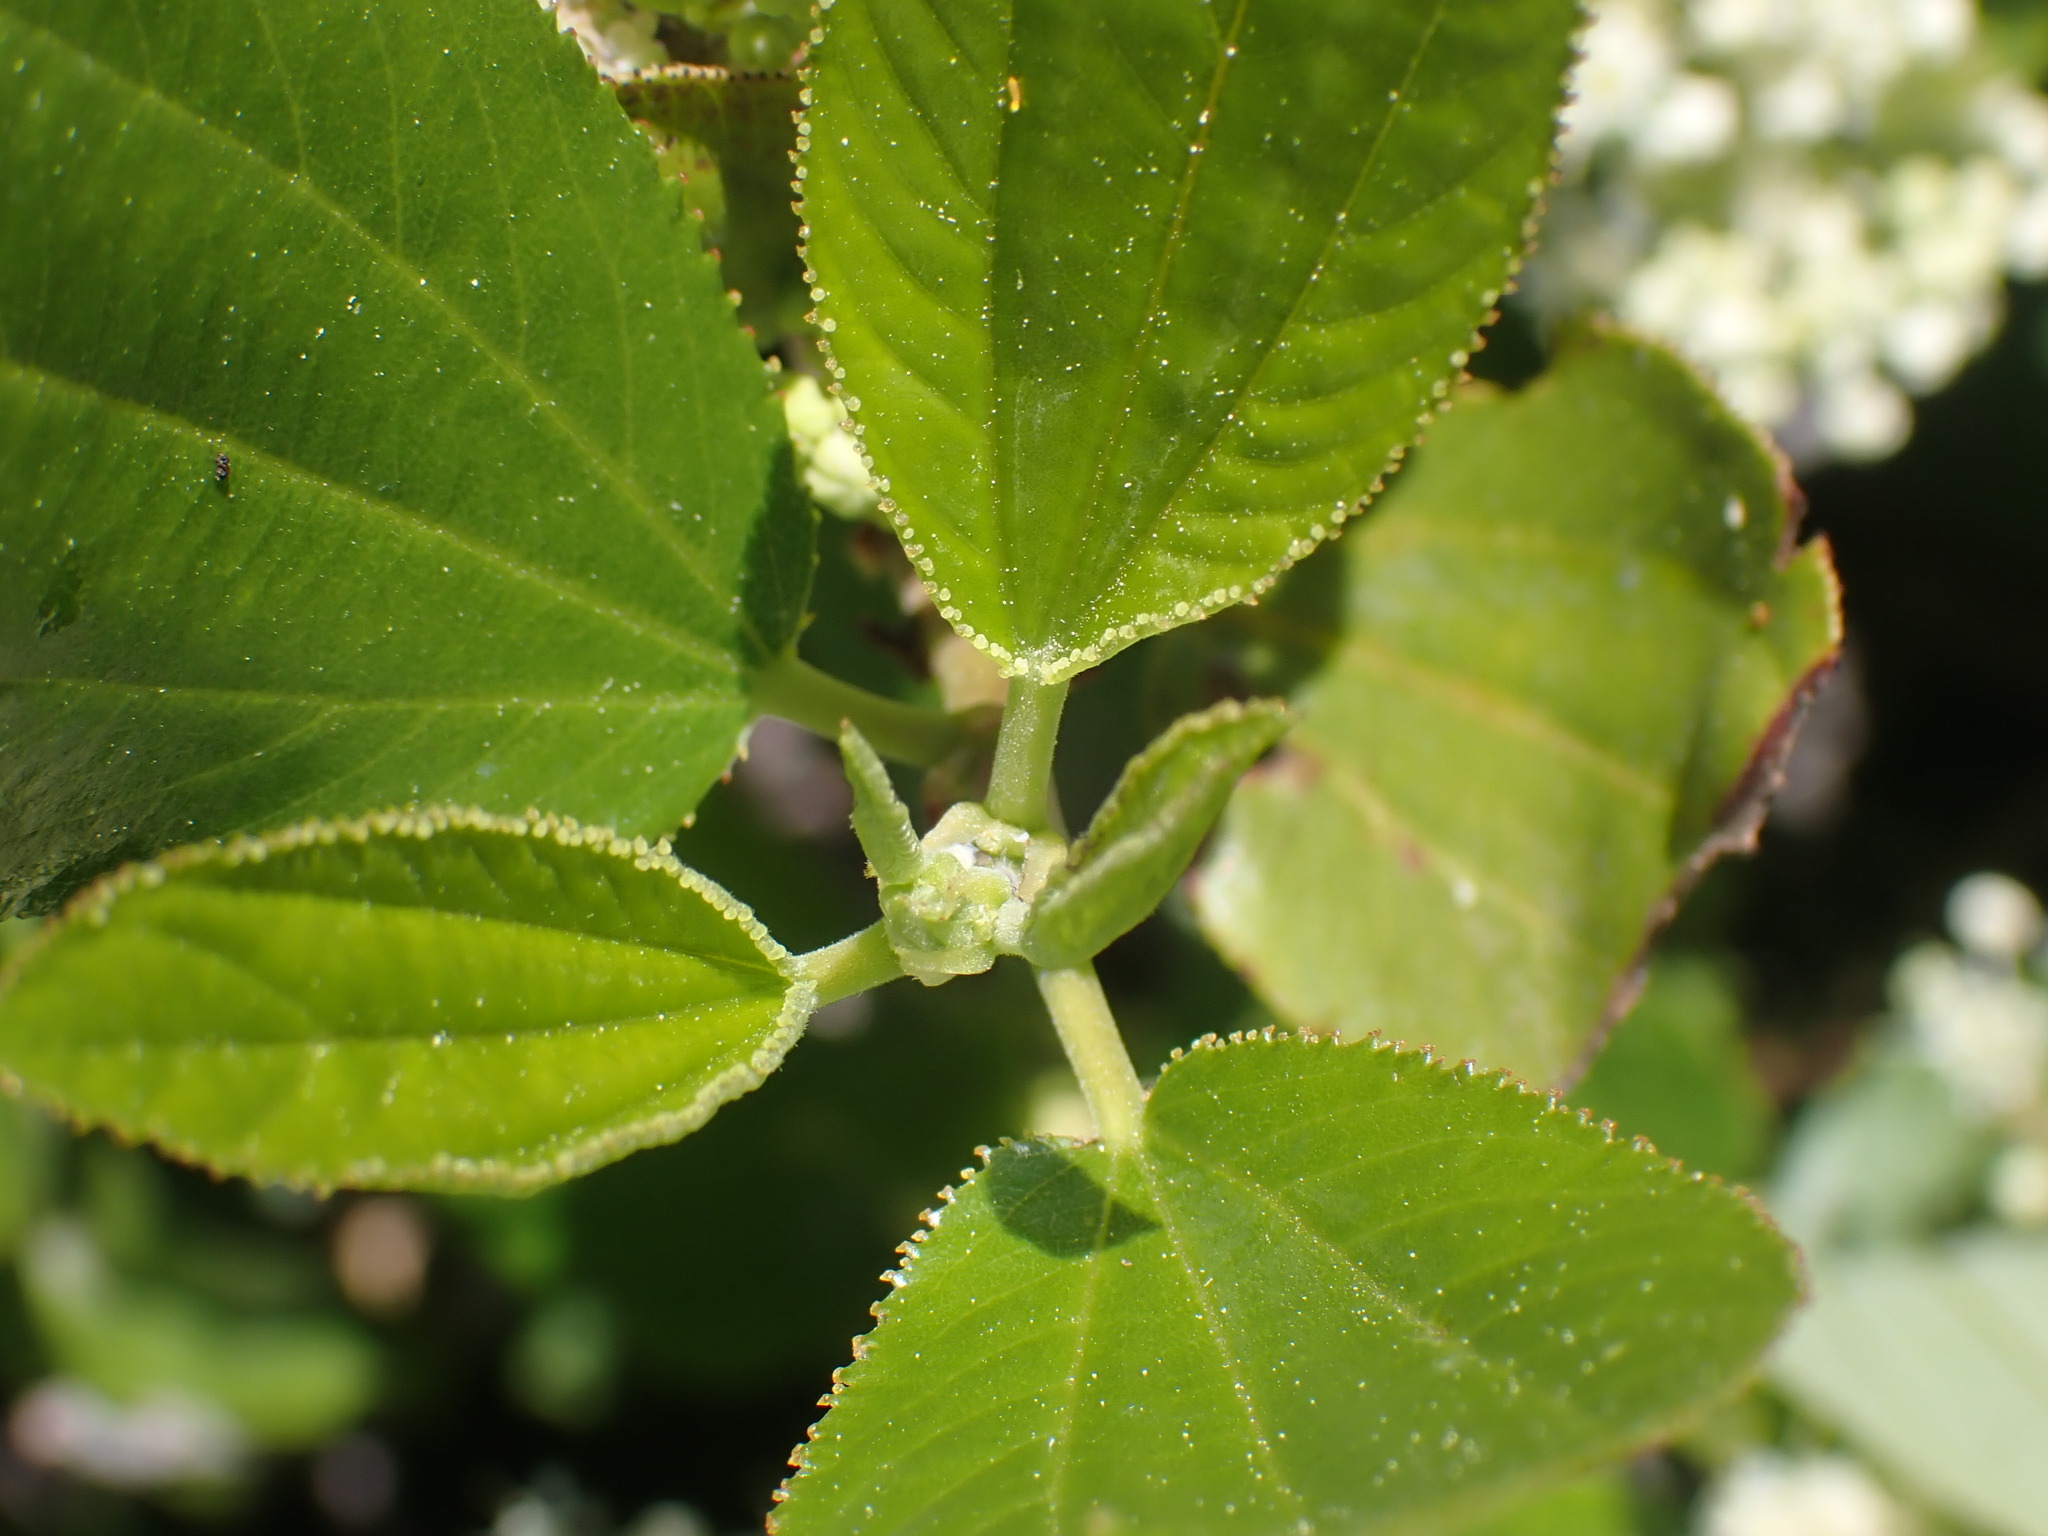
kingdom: Plantae
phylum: Tracheophyta
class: Magnoliopsida
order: Rosales
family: Rhamnaceae
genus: Ceanothus
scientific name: Ceanothus velutinus
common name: Snowbrush
